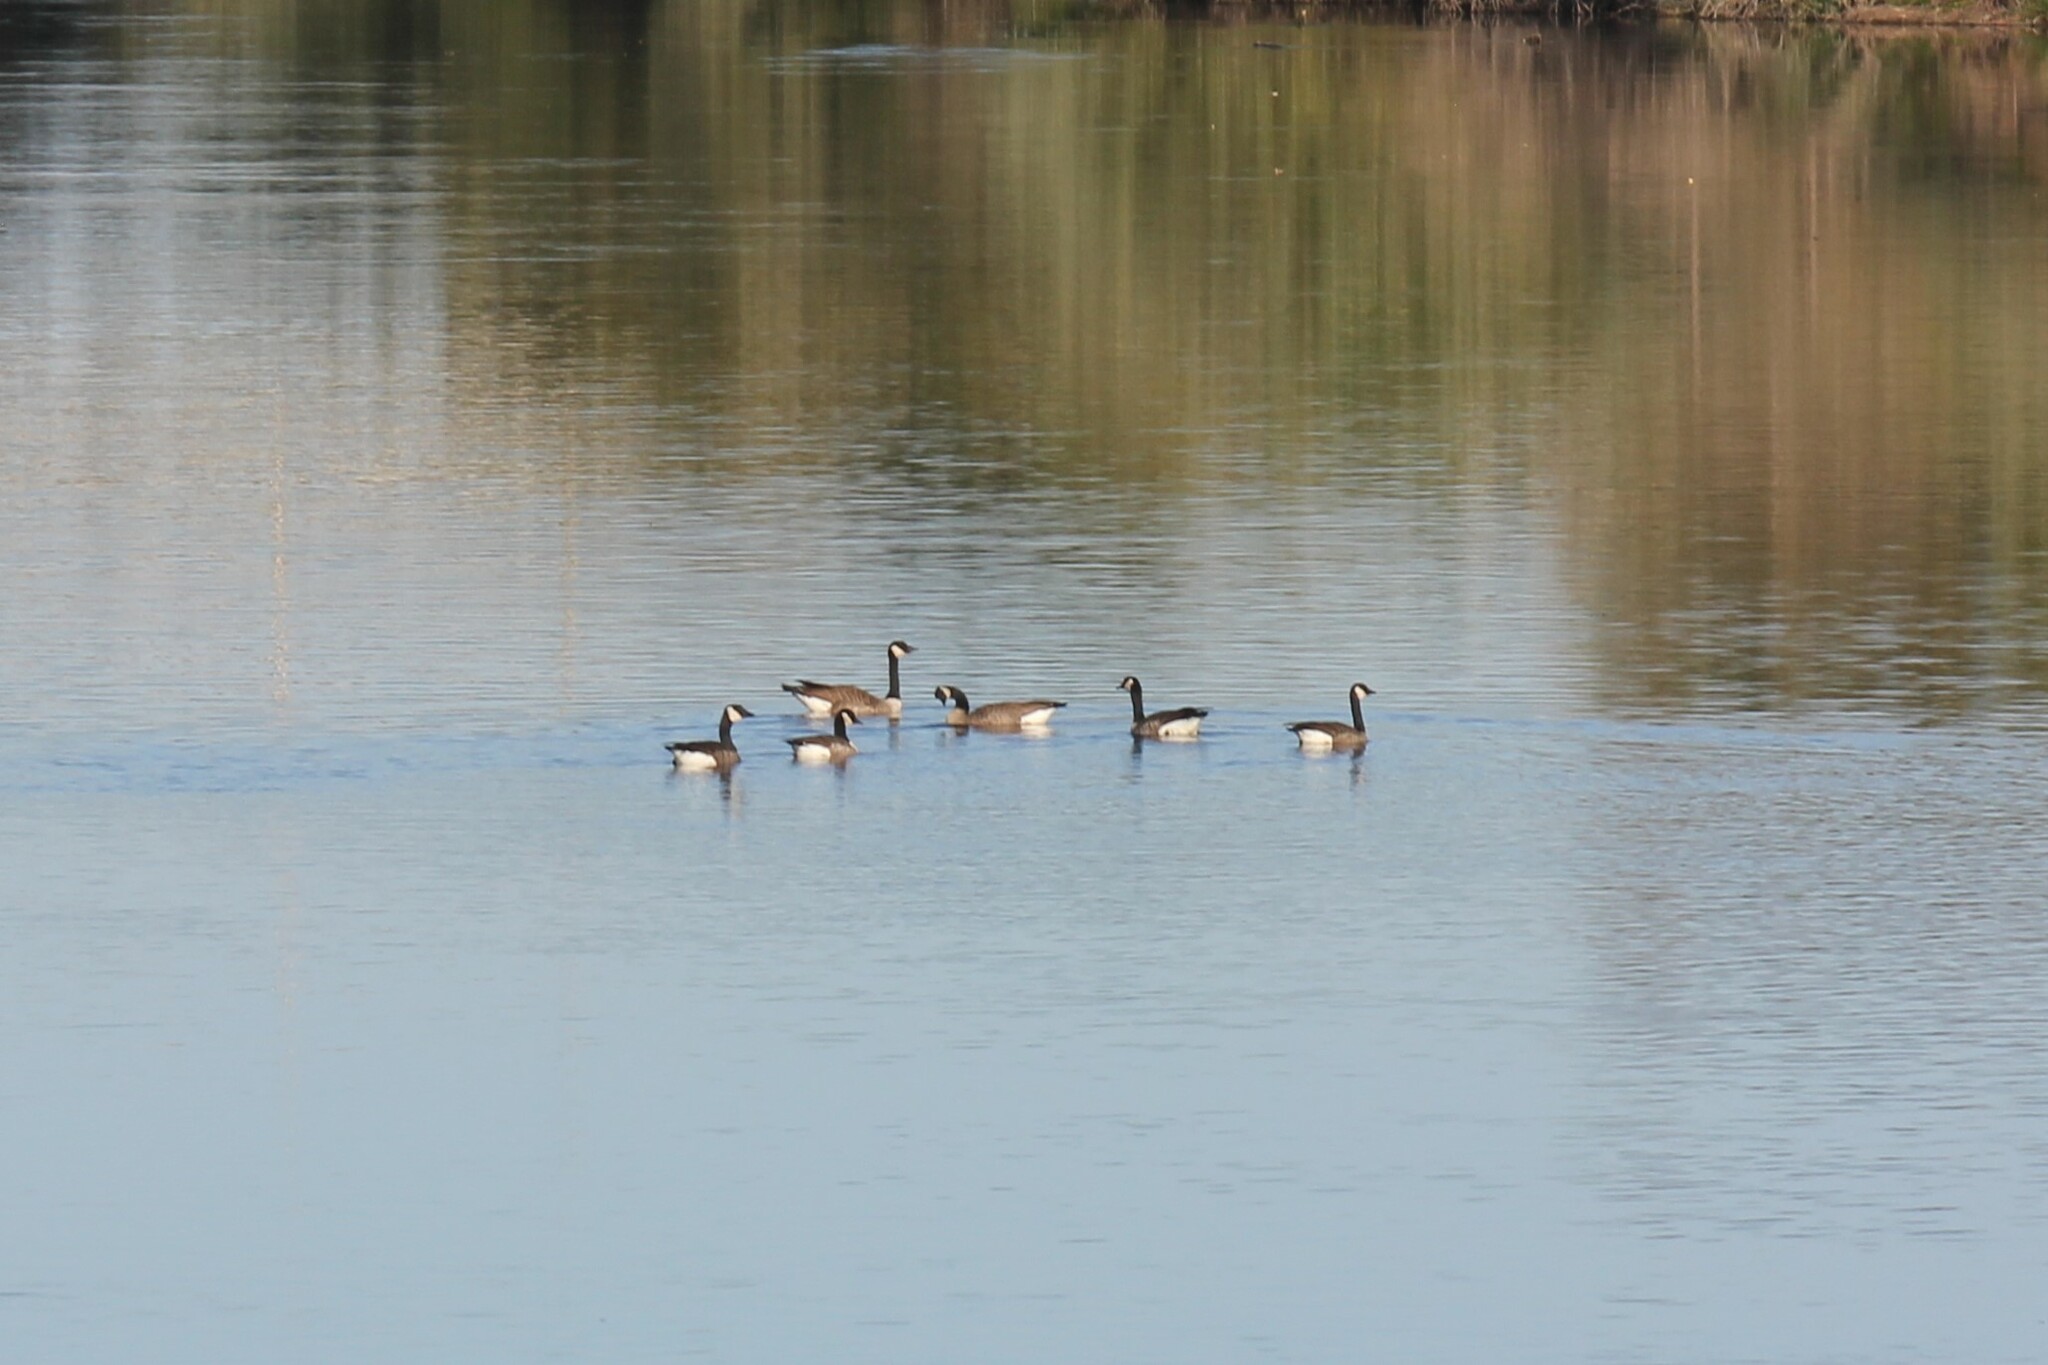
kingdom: Animalia
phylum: Chordata
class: Aves
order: Anseriformes
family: Anatidae
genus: Branta
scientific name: Branta canadensis
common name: Canada goose
